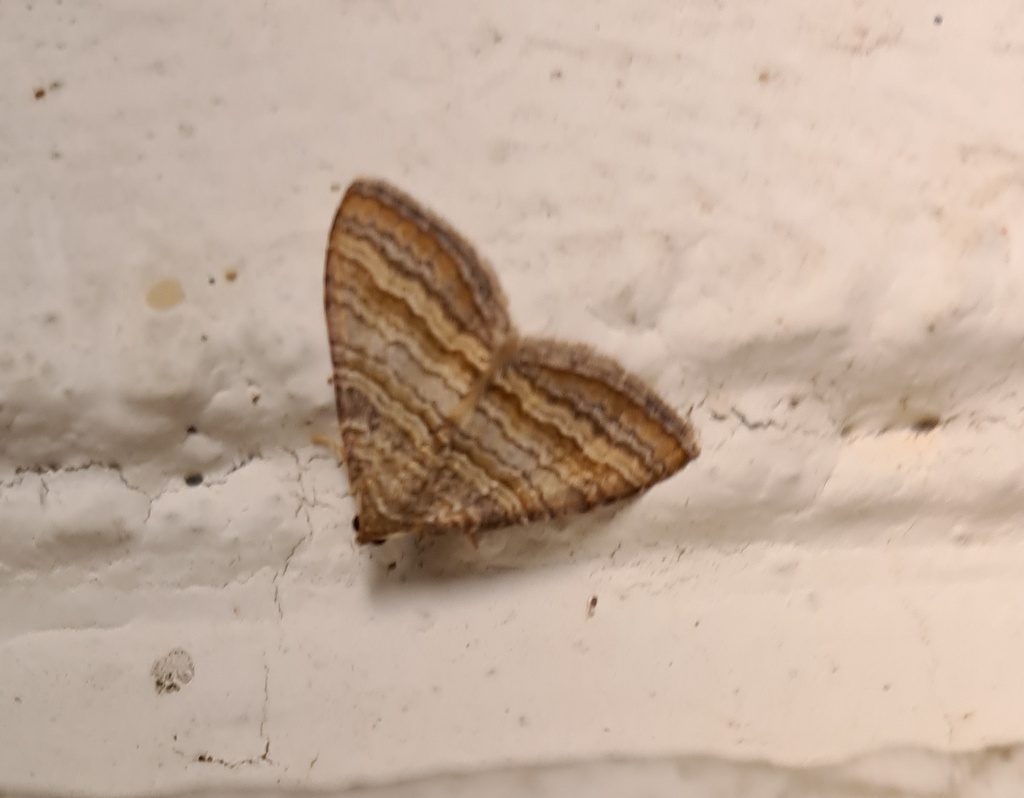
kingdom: Animalia
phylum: Arthropoda
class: Insecta
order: Lepidoptera
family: Geometridae
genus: Mimoclystia
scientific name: Mimoclystia pudicata
